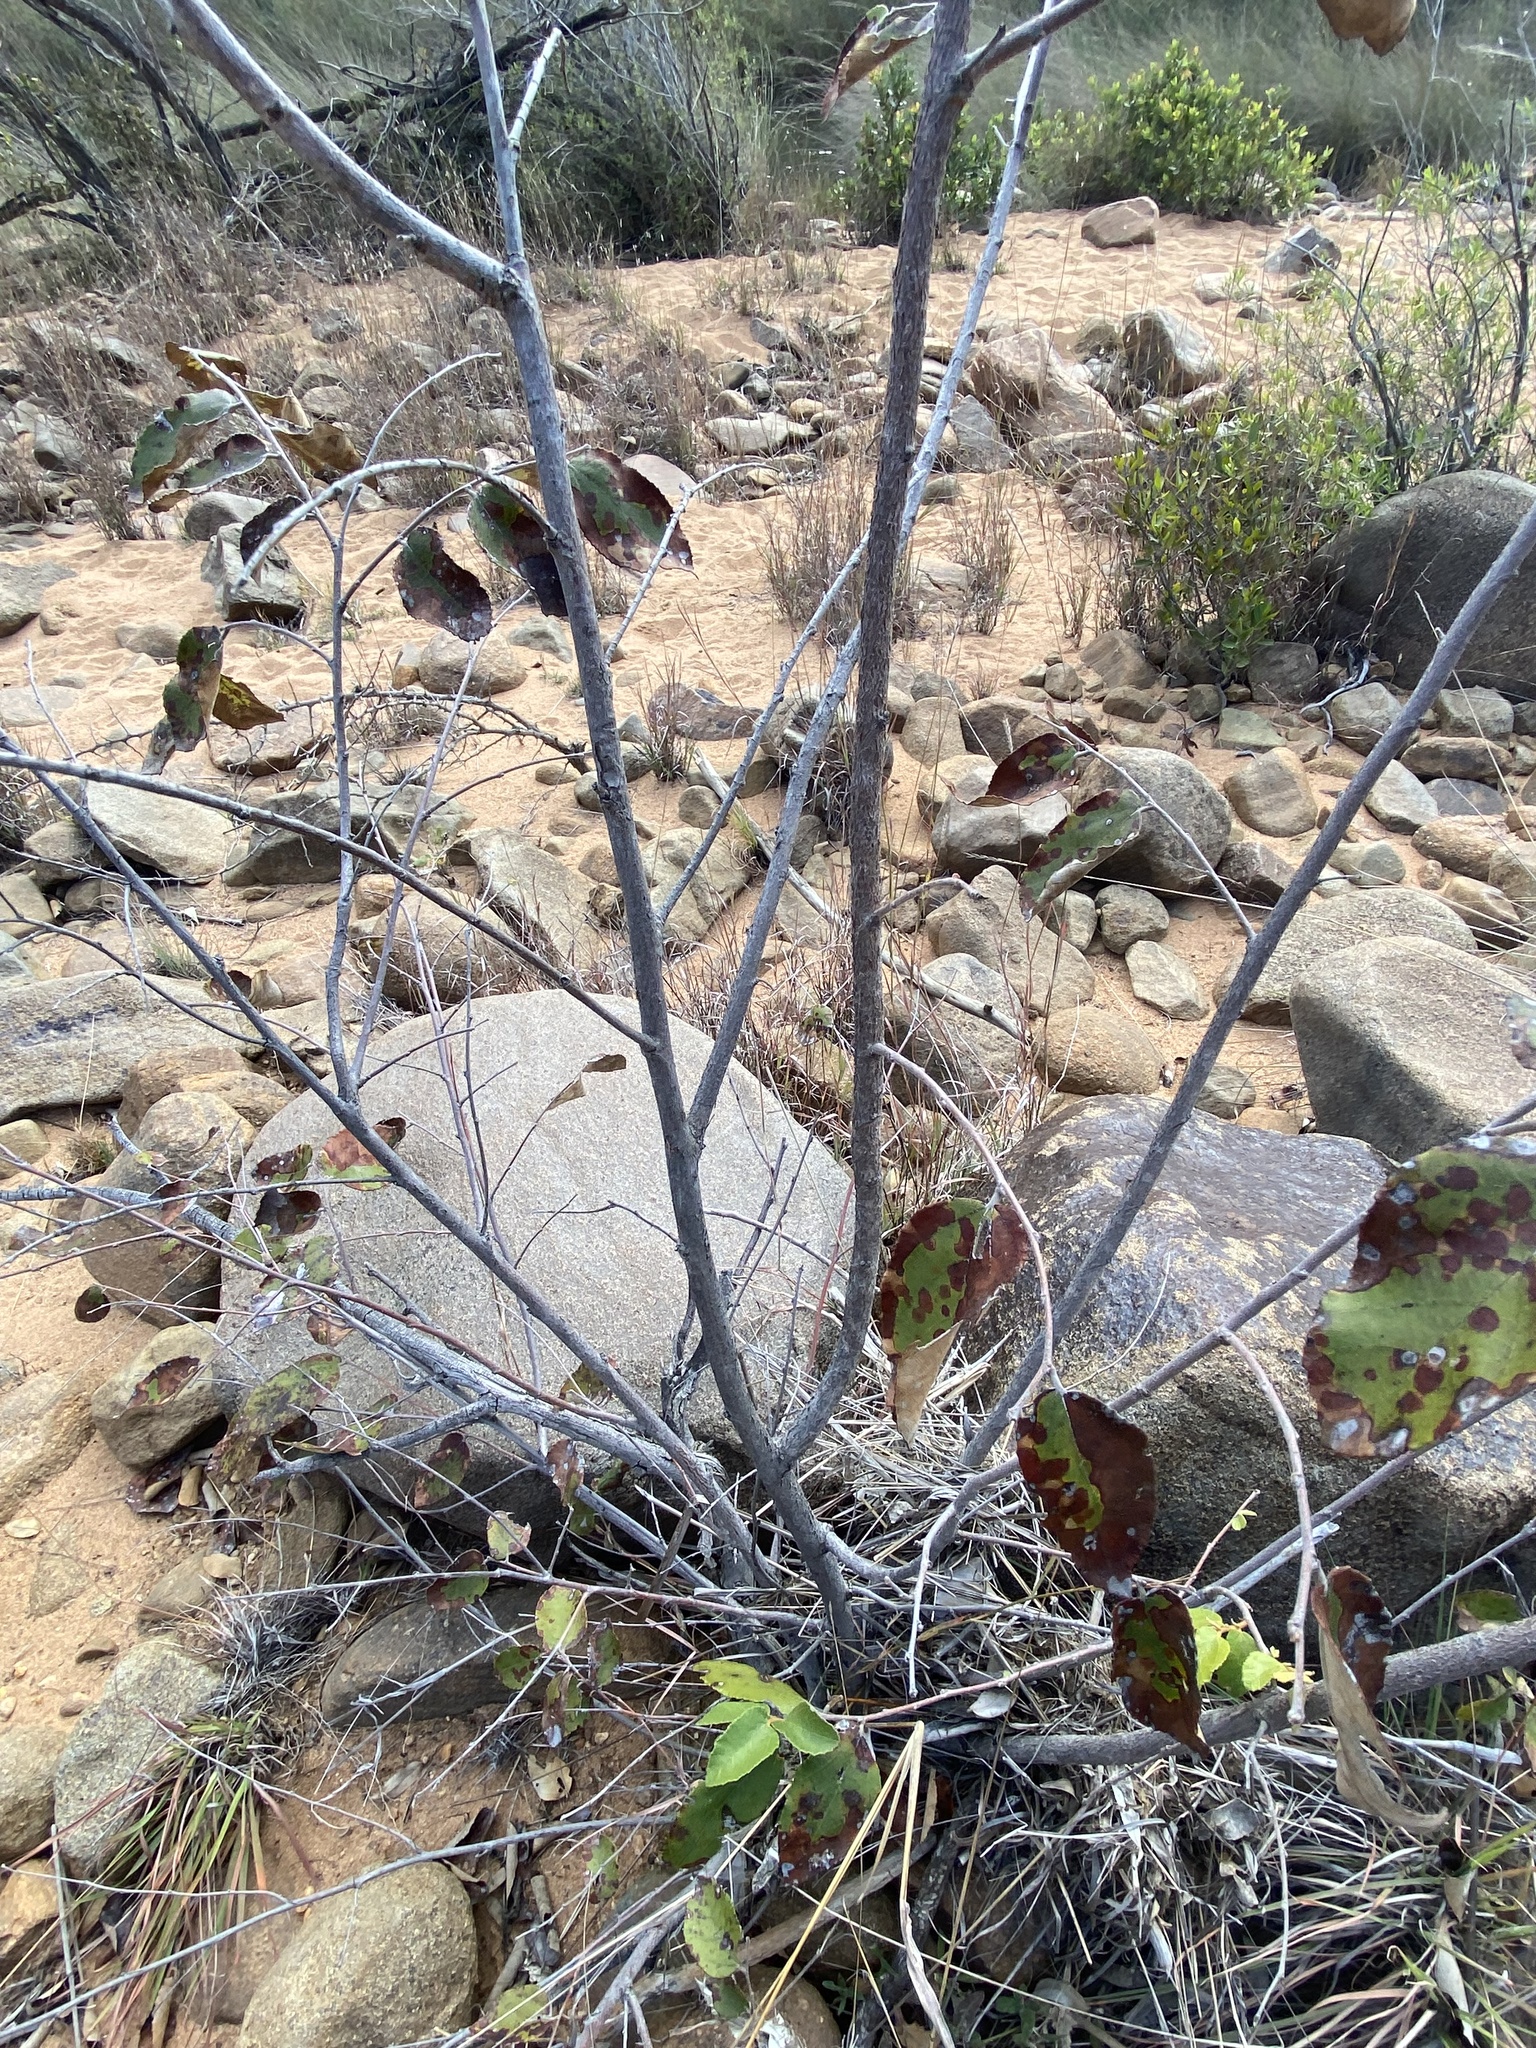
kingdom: Plantae
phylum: Tracheophyta
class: Magnoliopsida
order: Malvales
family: Malvaceae
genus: Grewia
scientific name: Grewia monticola
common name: Grey raisin
